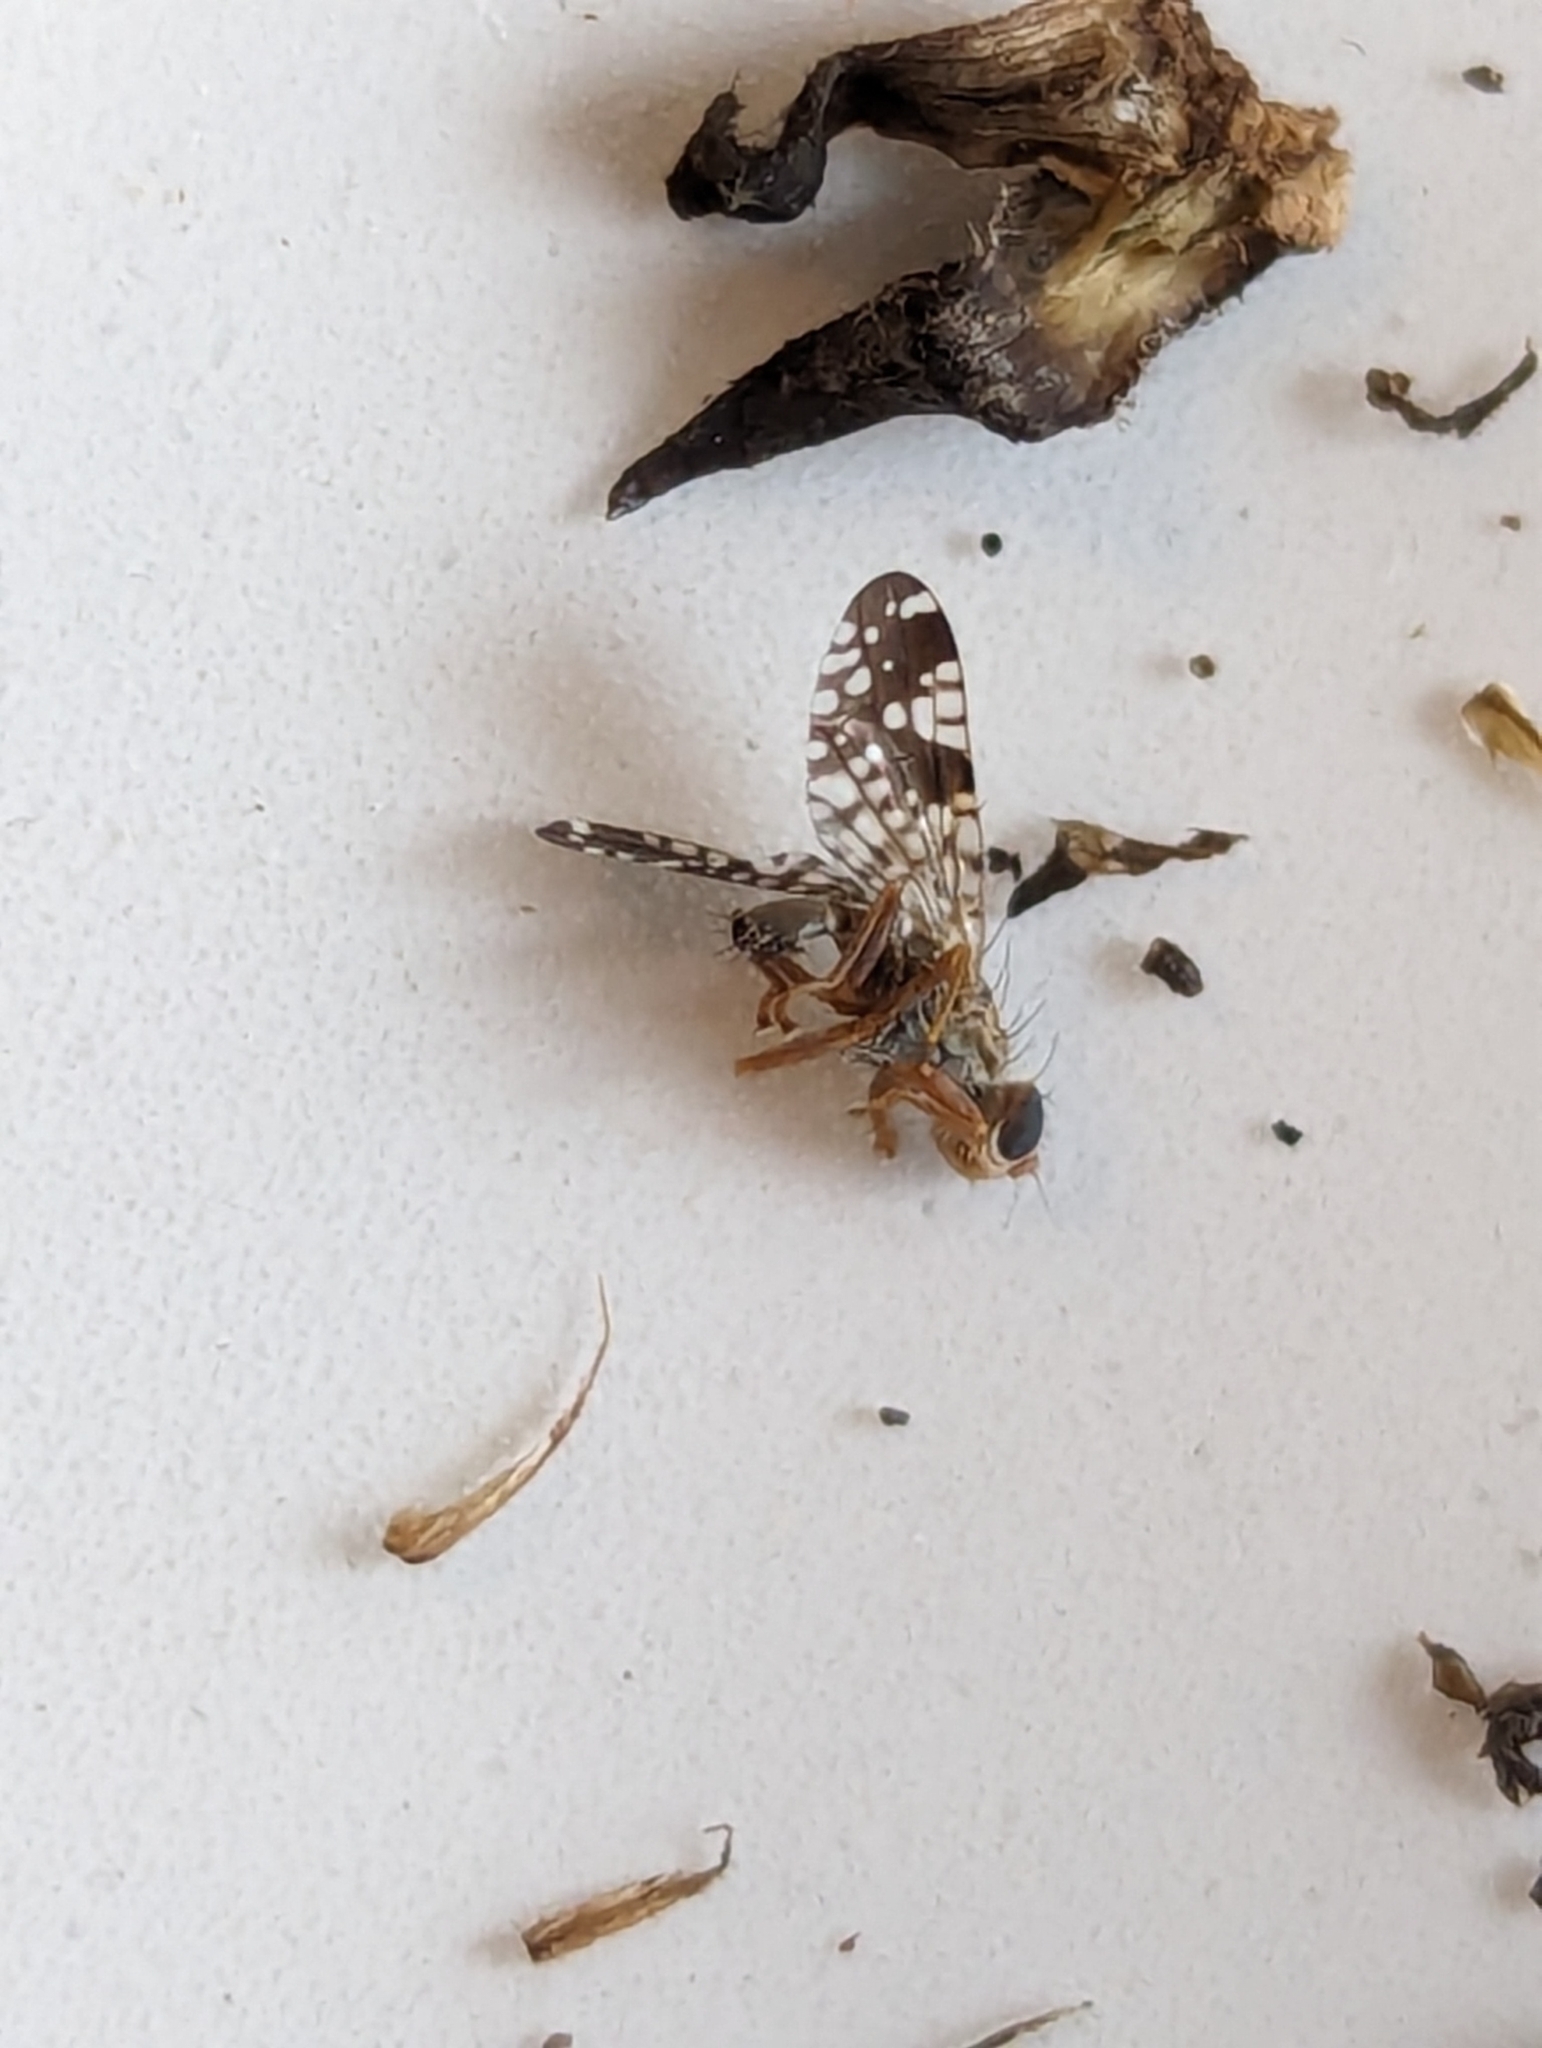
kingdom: Animalia
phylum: Arthropoda
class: Insecta
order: Diptera
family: Tephritidae
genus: Neotephritis
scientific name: Neotephritis finalis
